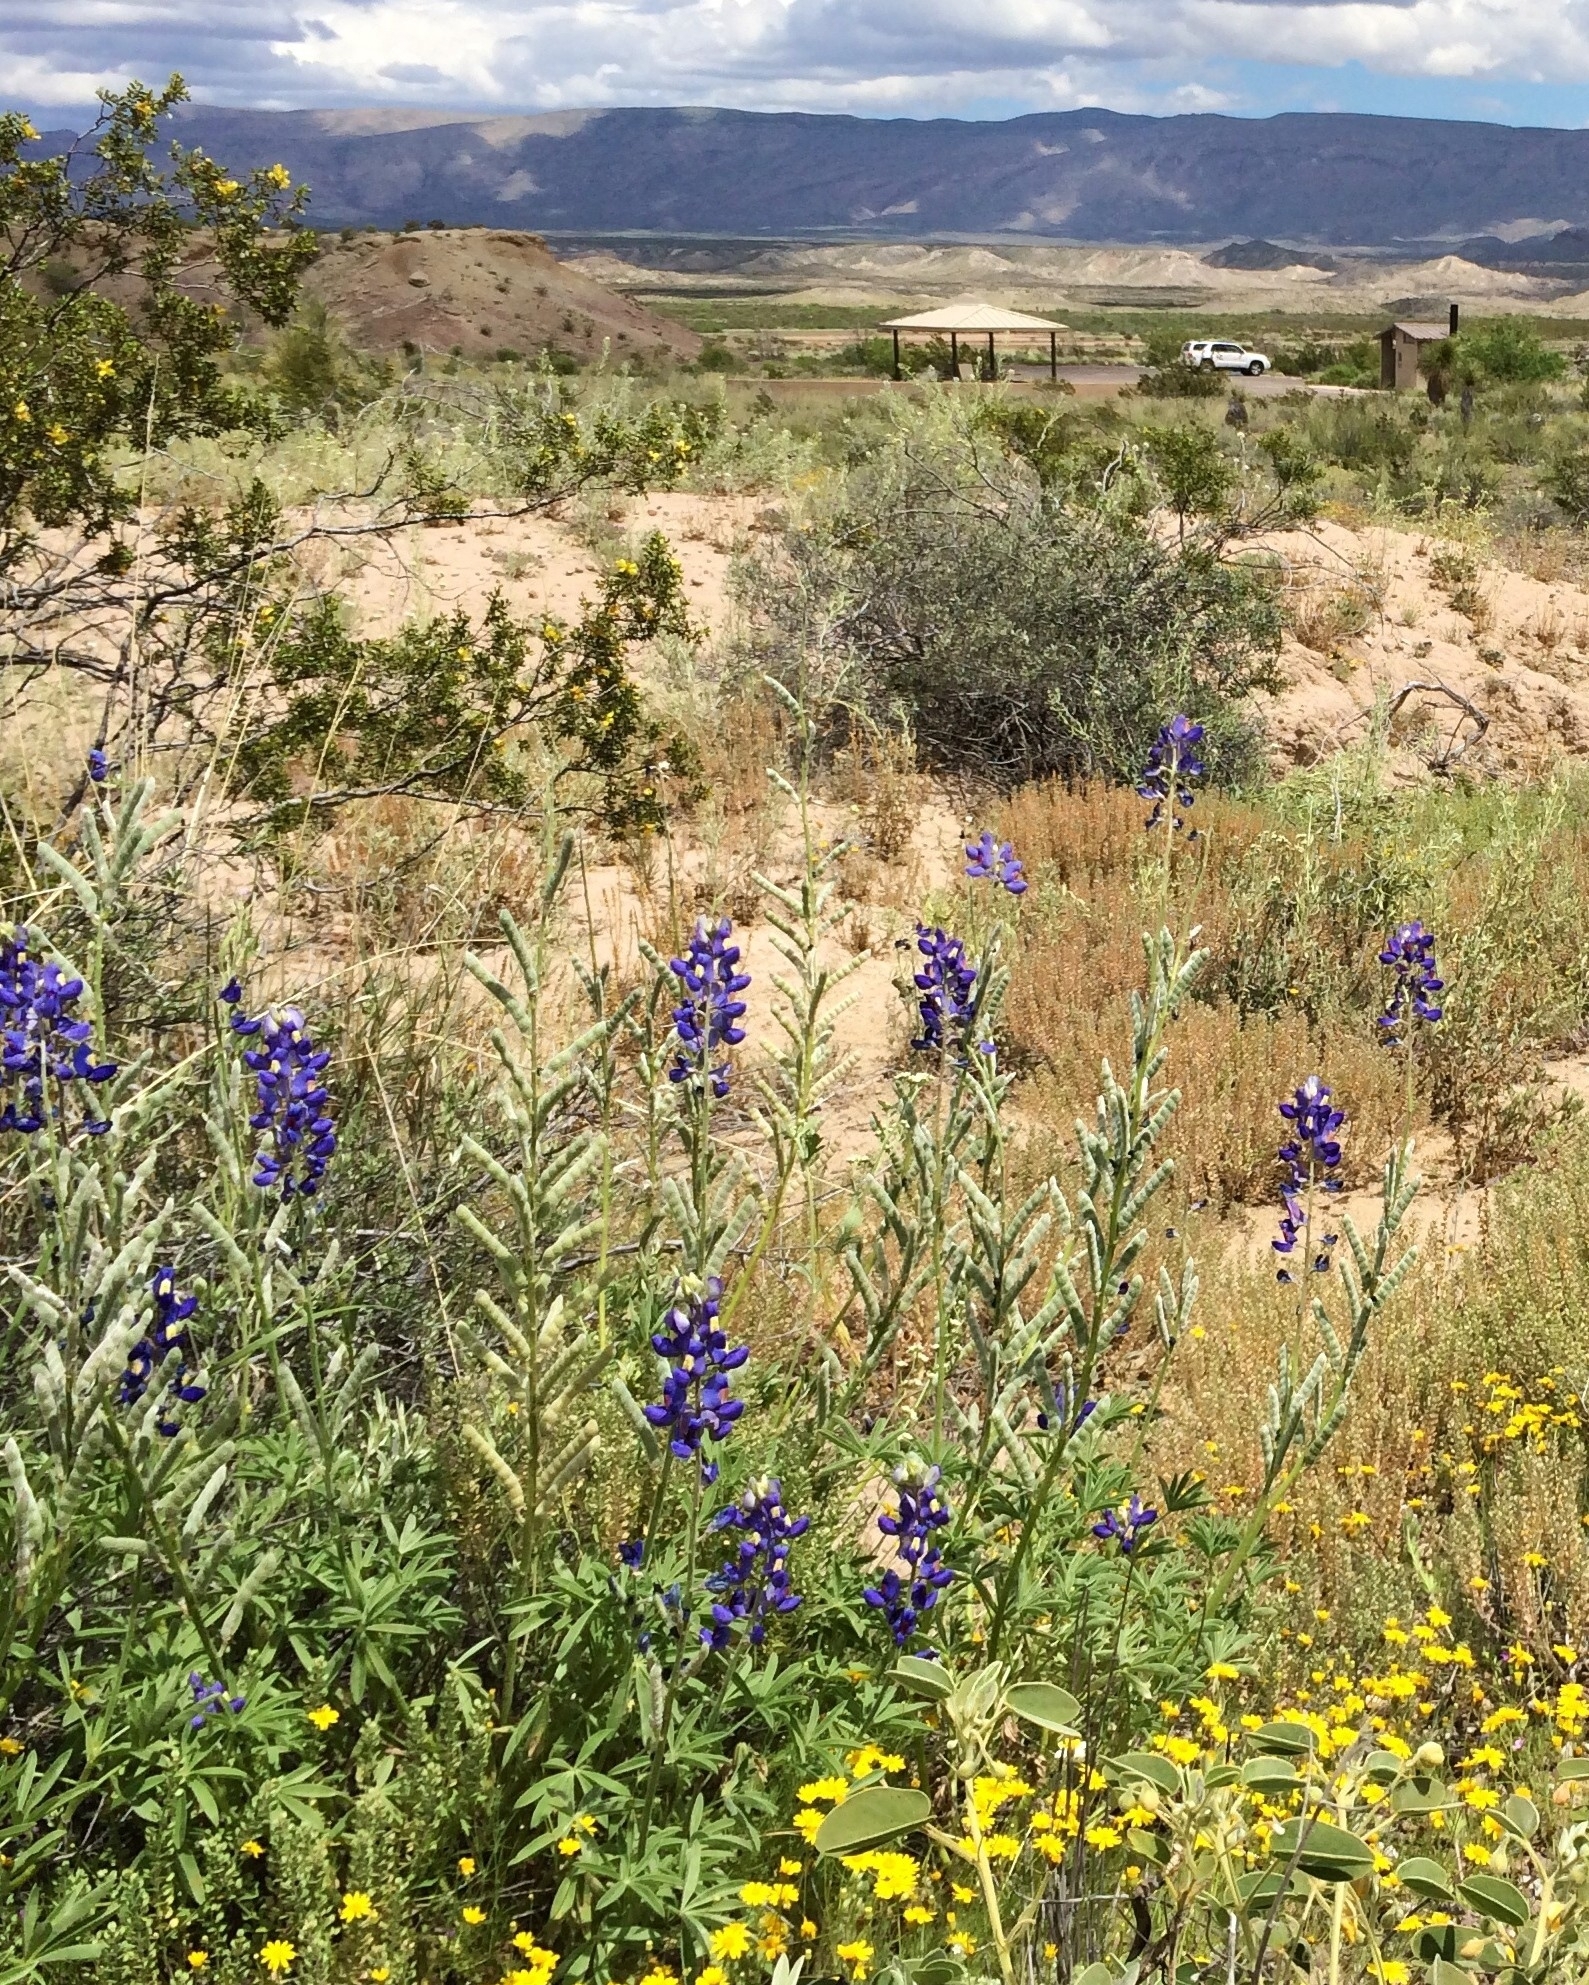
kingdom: Plantae
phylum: Tracheophyta
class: Magnoliopsida
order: Fabales
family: Fabaceae
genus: Lupinus
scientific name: Lupinus havardii
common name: Chisos bluebonnet
